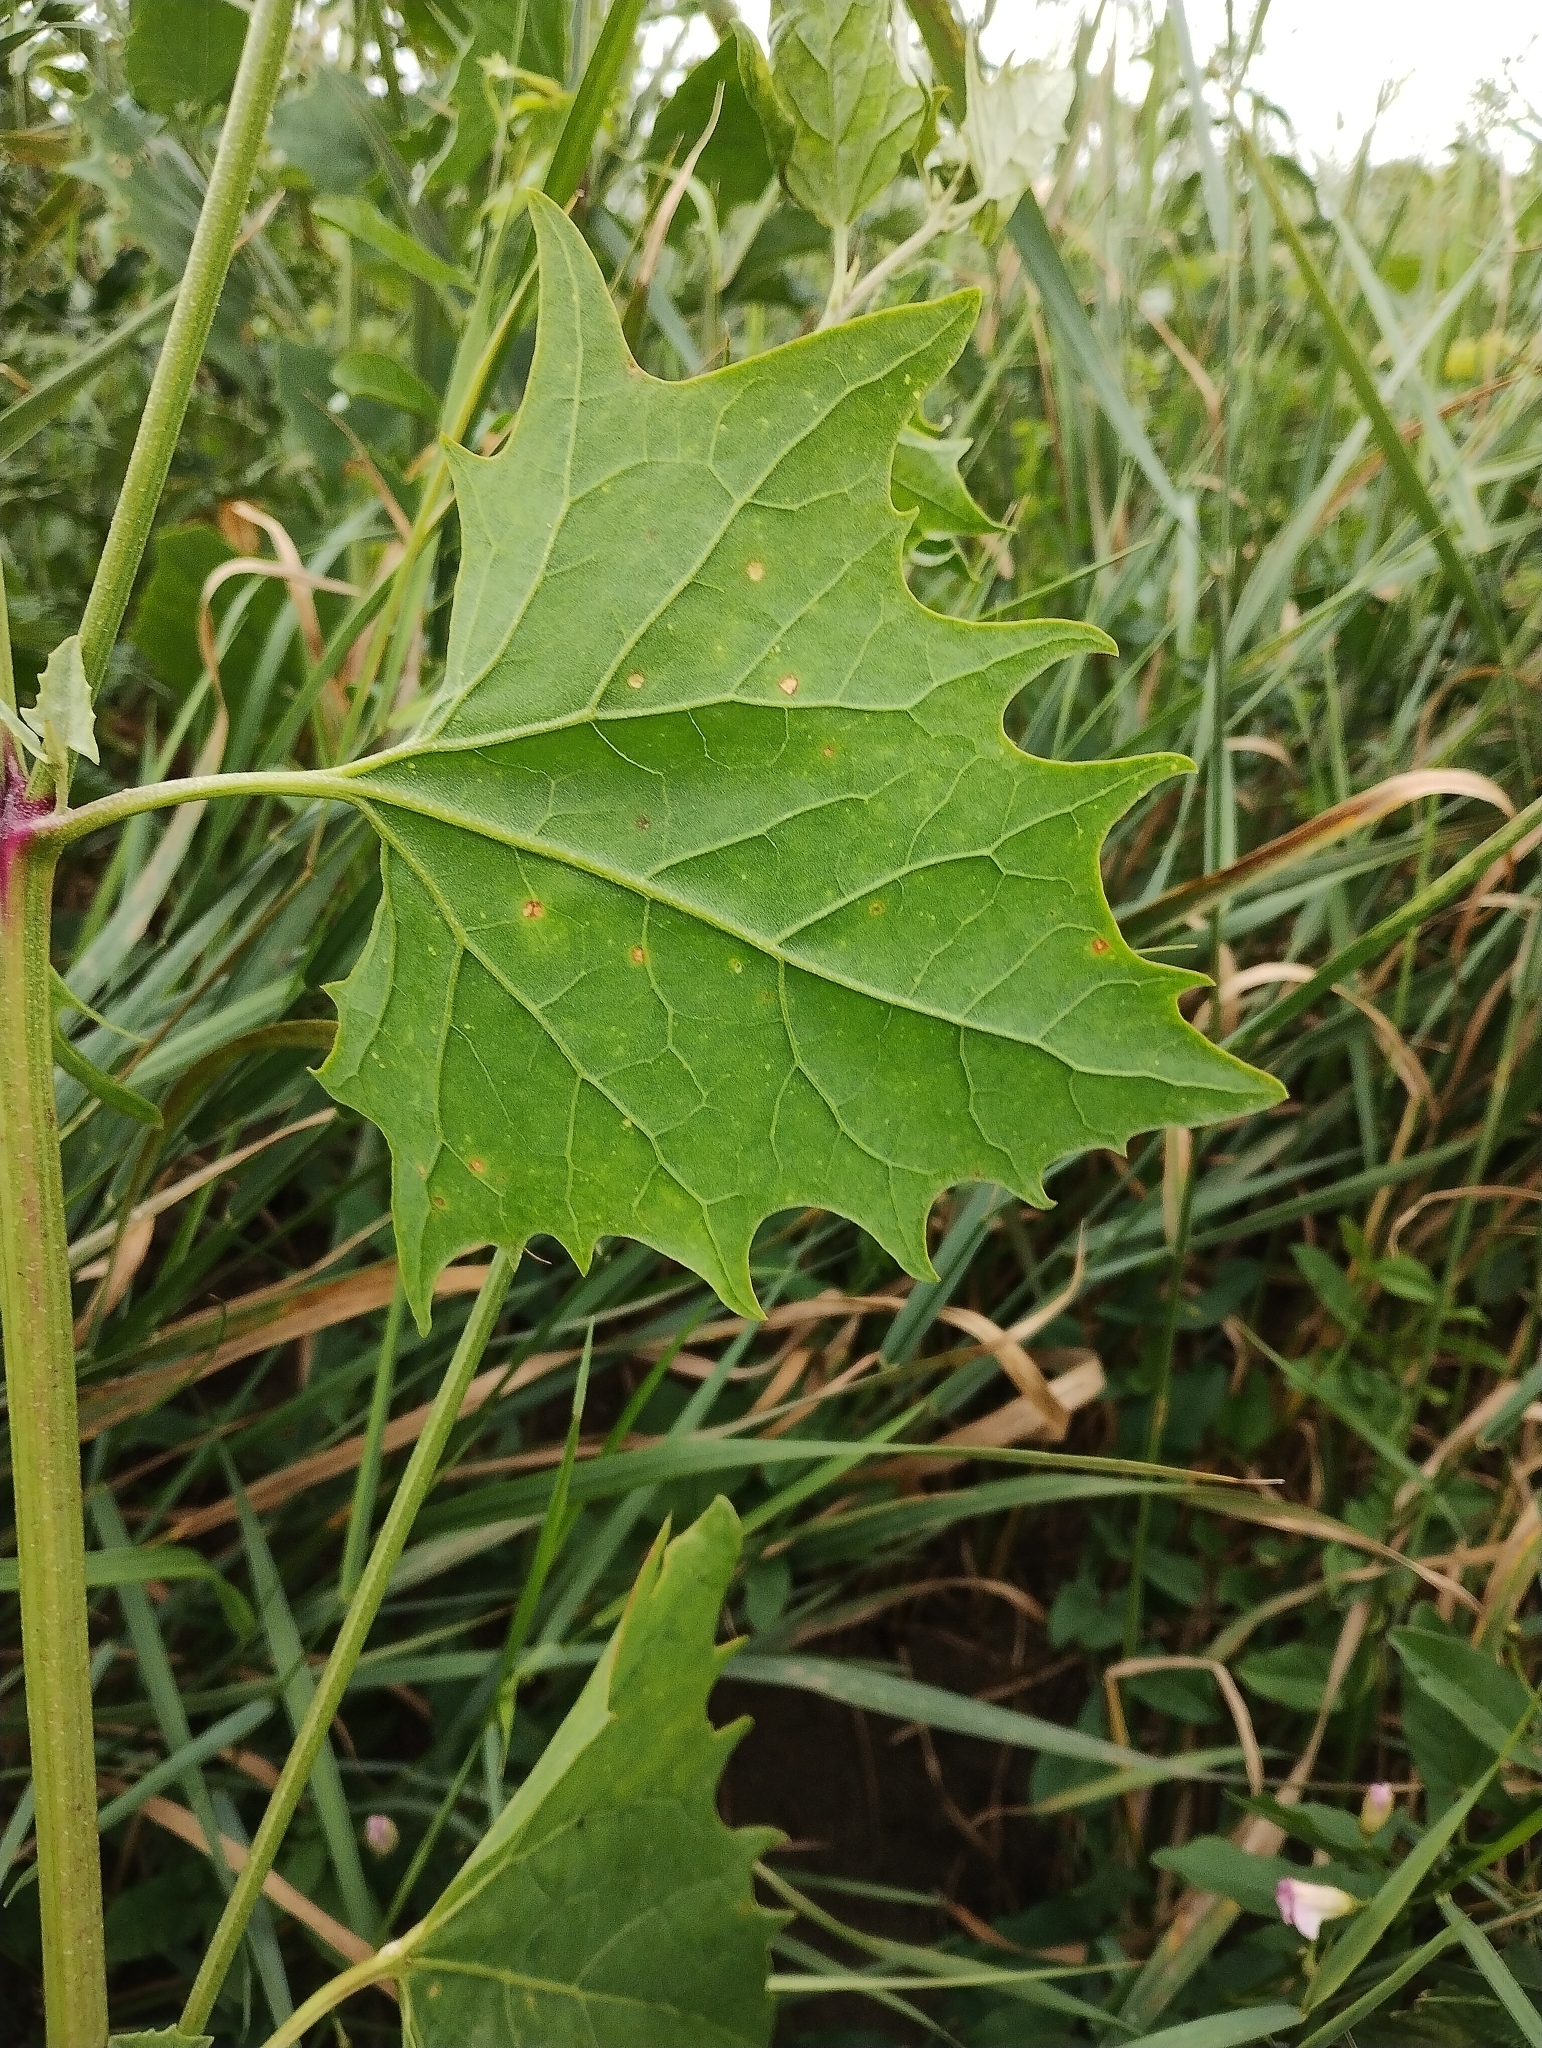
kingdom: Plantae
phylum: Tracheophyta
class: Magnoliopsida
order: Caryophyllales
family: Amaranthaceae
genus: Atriplex
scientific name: Atriplex micrantha
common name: Twoscale saltbush
